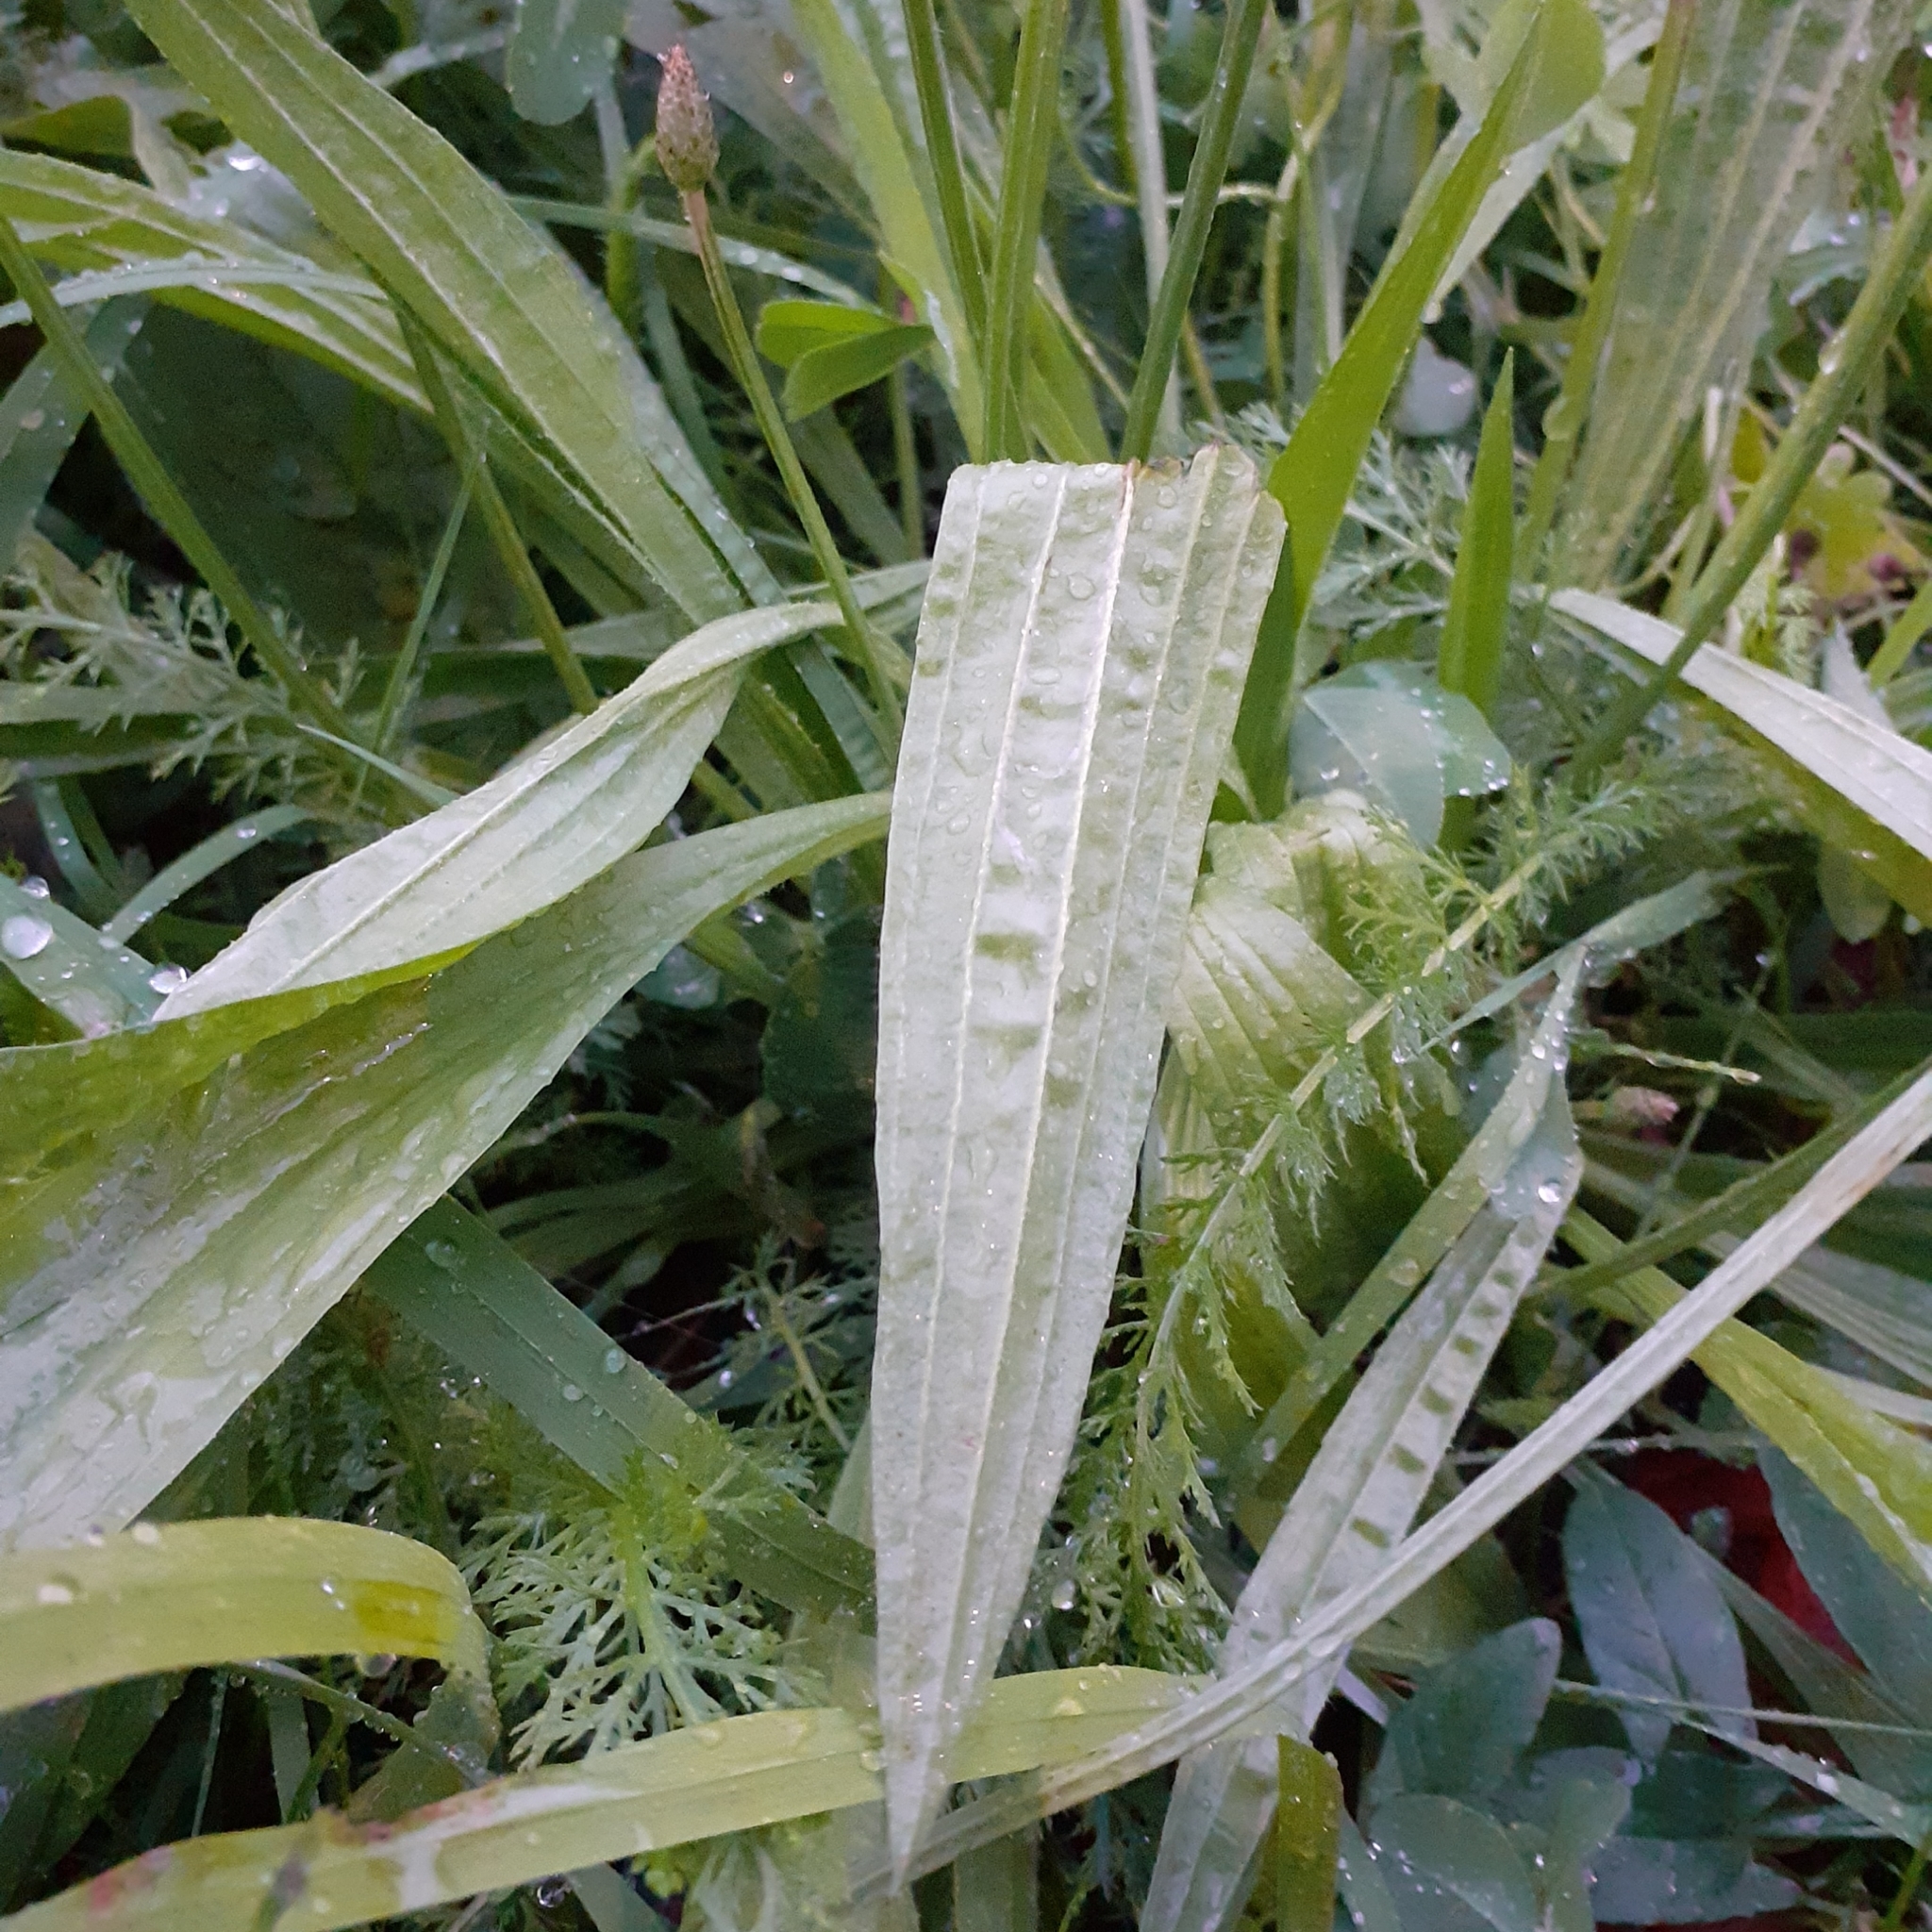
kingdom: Plantae
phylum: Tracheophyta
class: Magnoliopsida
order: Lamiales
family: Plantaginaceae
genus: Plantago
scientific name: Plantago lanceolata
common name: Ribwort plantain
